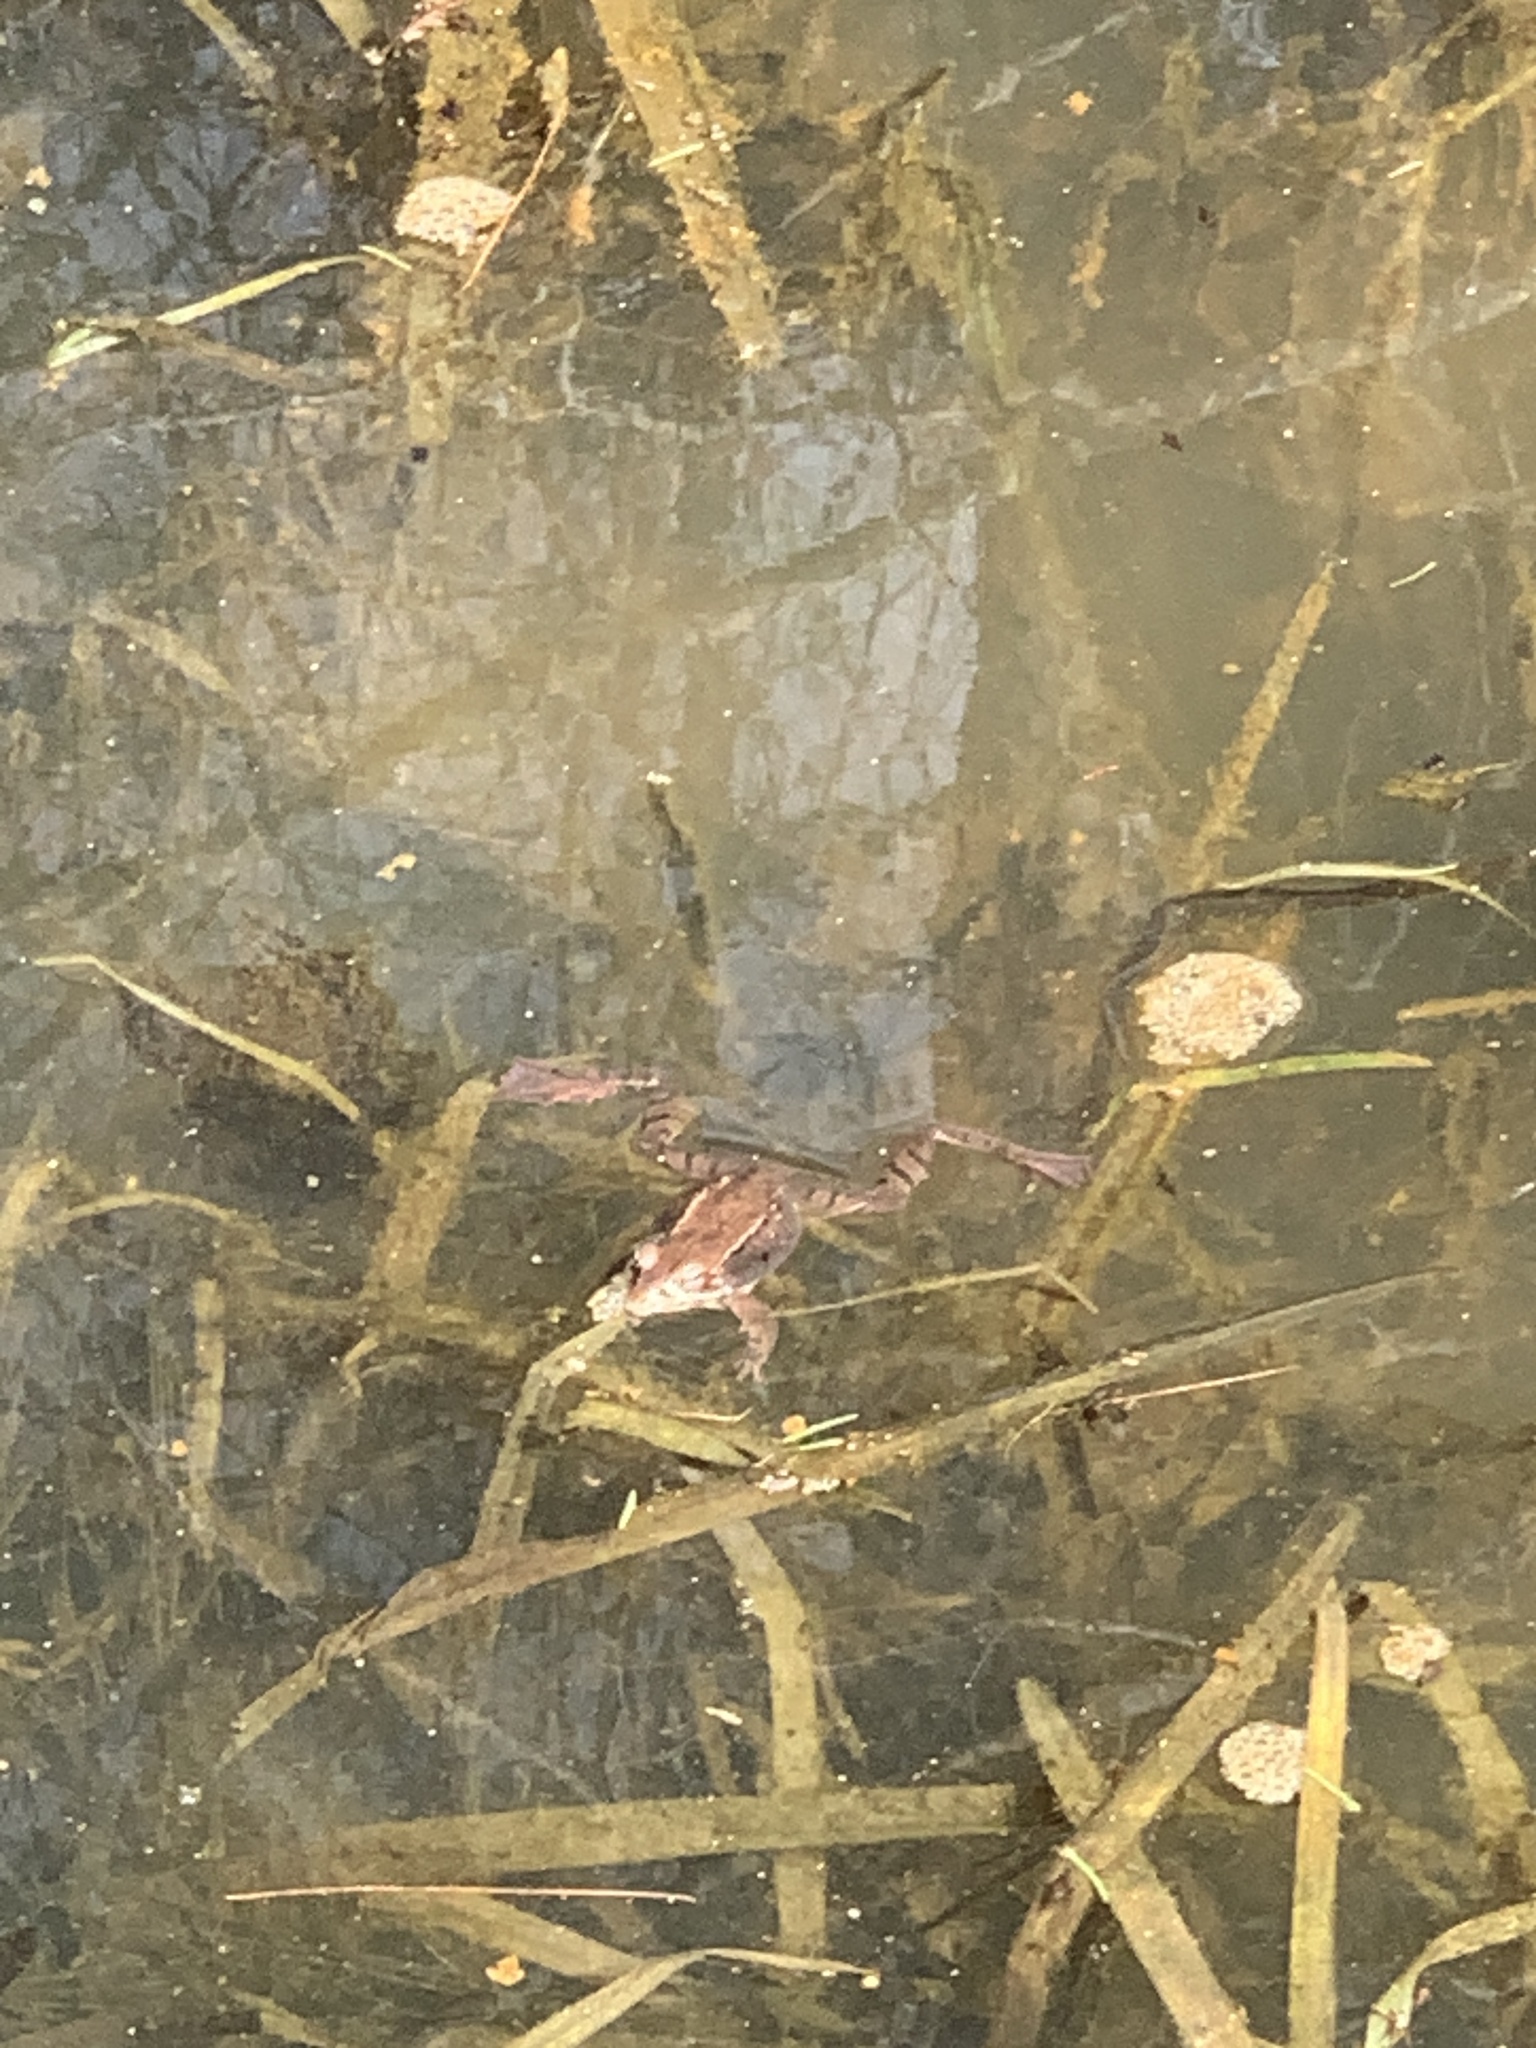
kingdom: Animalia
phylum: Chordata
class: Amphibia
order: Anura
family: Ranidae
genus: Lithobates
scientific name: Lithobates sylvaticus
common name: Wood frog
